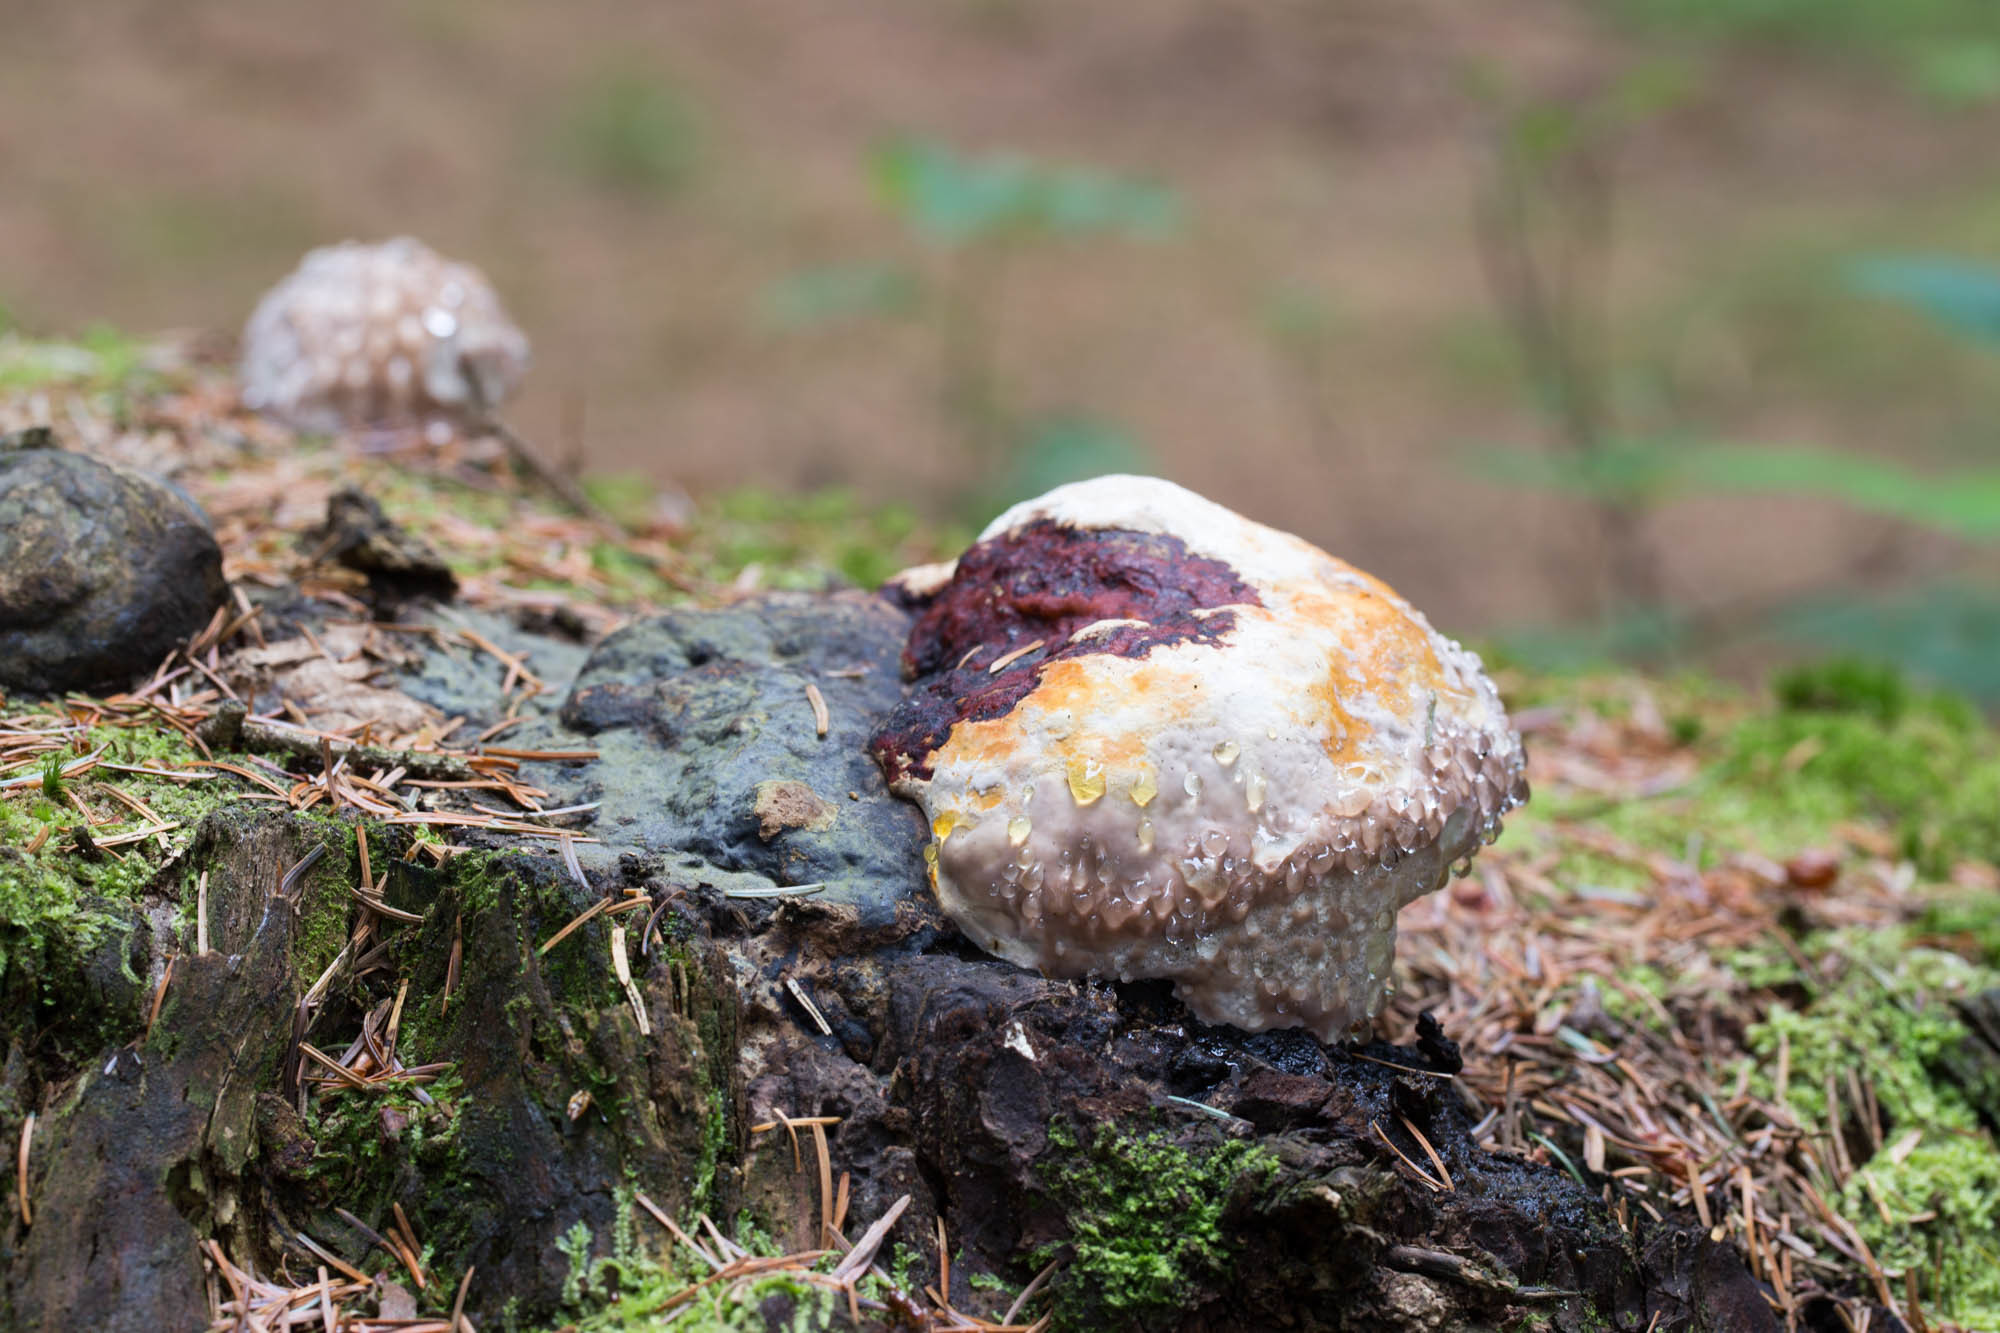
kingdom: Fungi
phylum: Basidiomycota
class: Agaricomycetes
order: Polyporales
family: Fomitopsidaceae
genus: Fomitopsis
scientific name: Fomitopsis pinicola
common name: Red-belted bracket
